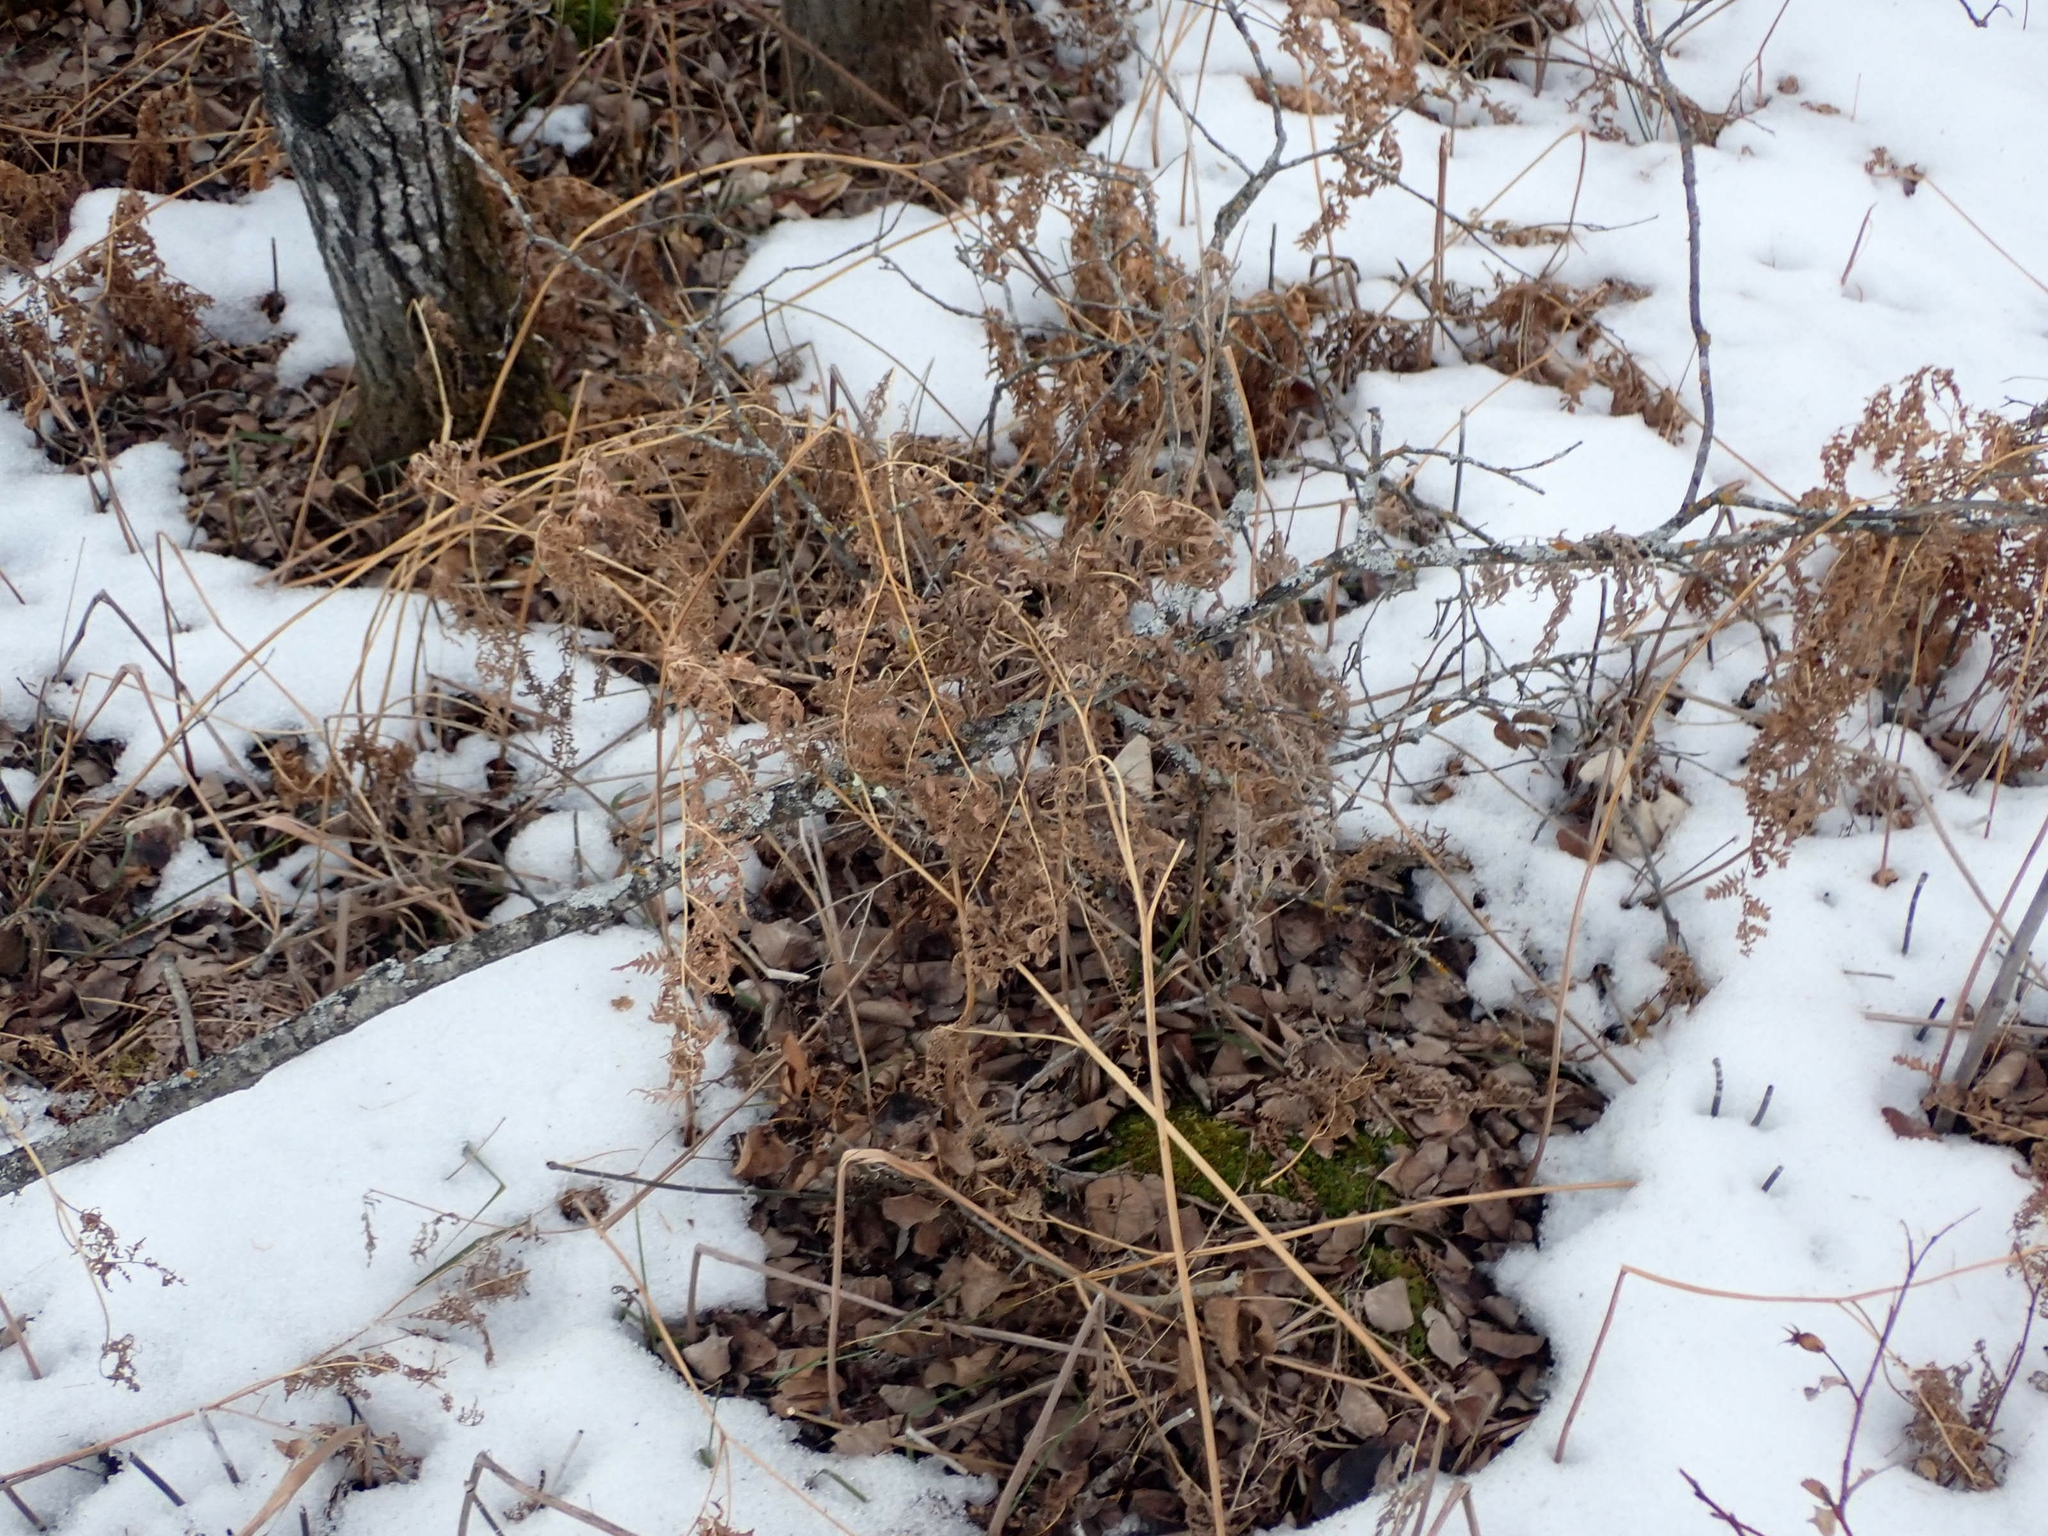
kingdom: Plantae
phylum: Tracheophyta
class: Polypodiopsida
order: Polypodiales
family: Dennstaedtiaceae
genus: Pteridium
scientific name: Pteridium aquilinum
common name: Bracken
